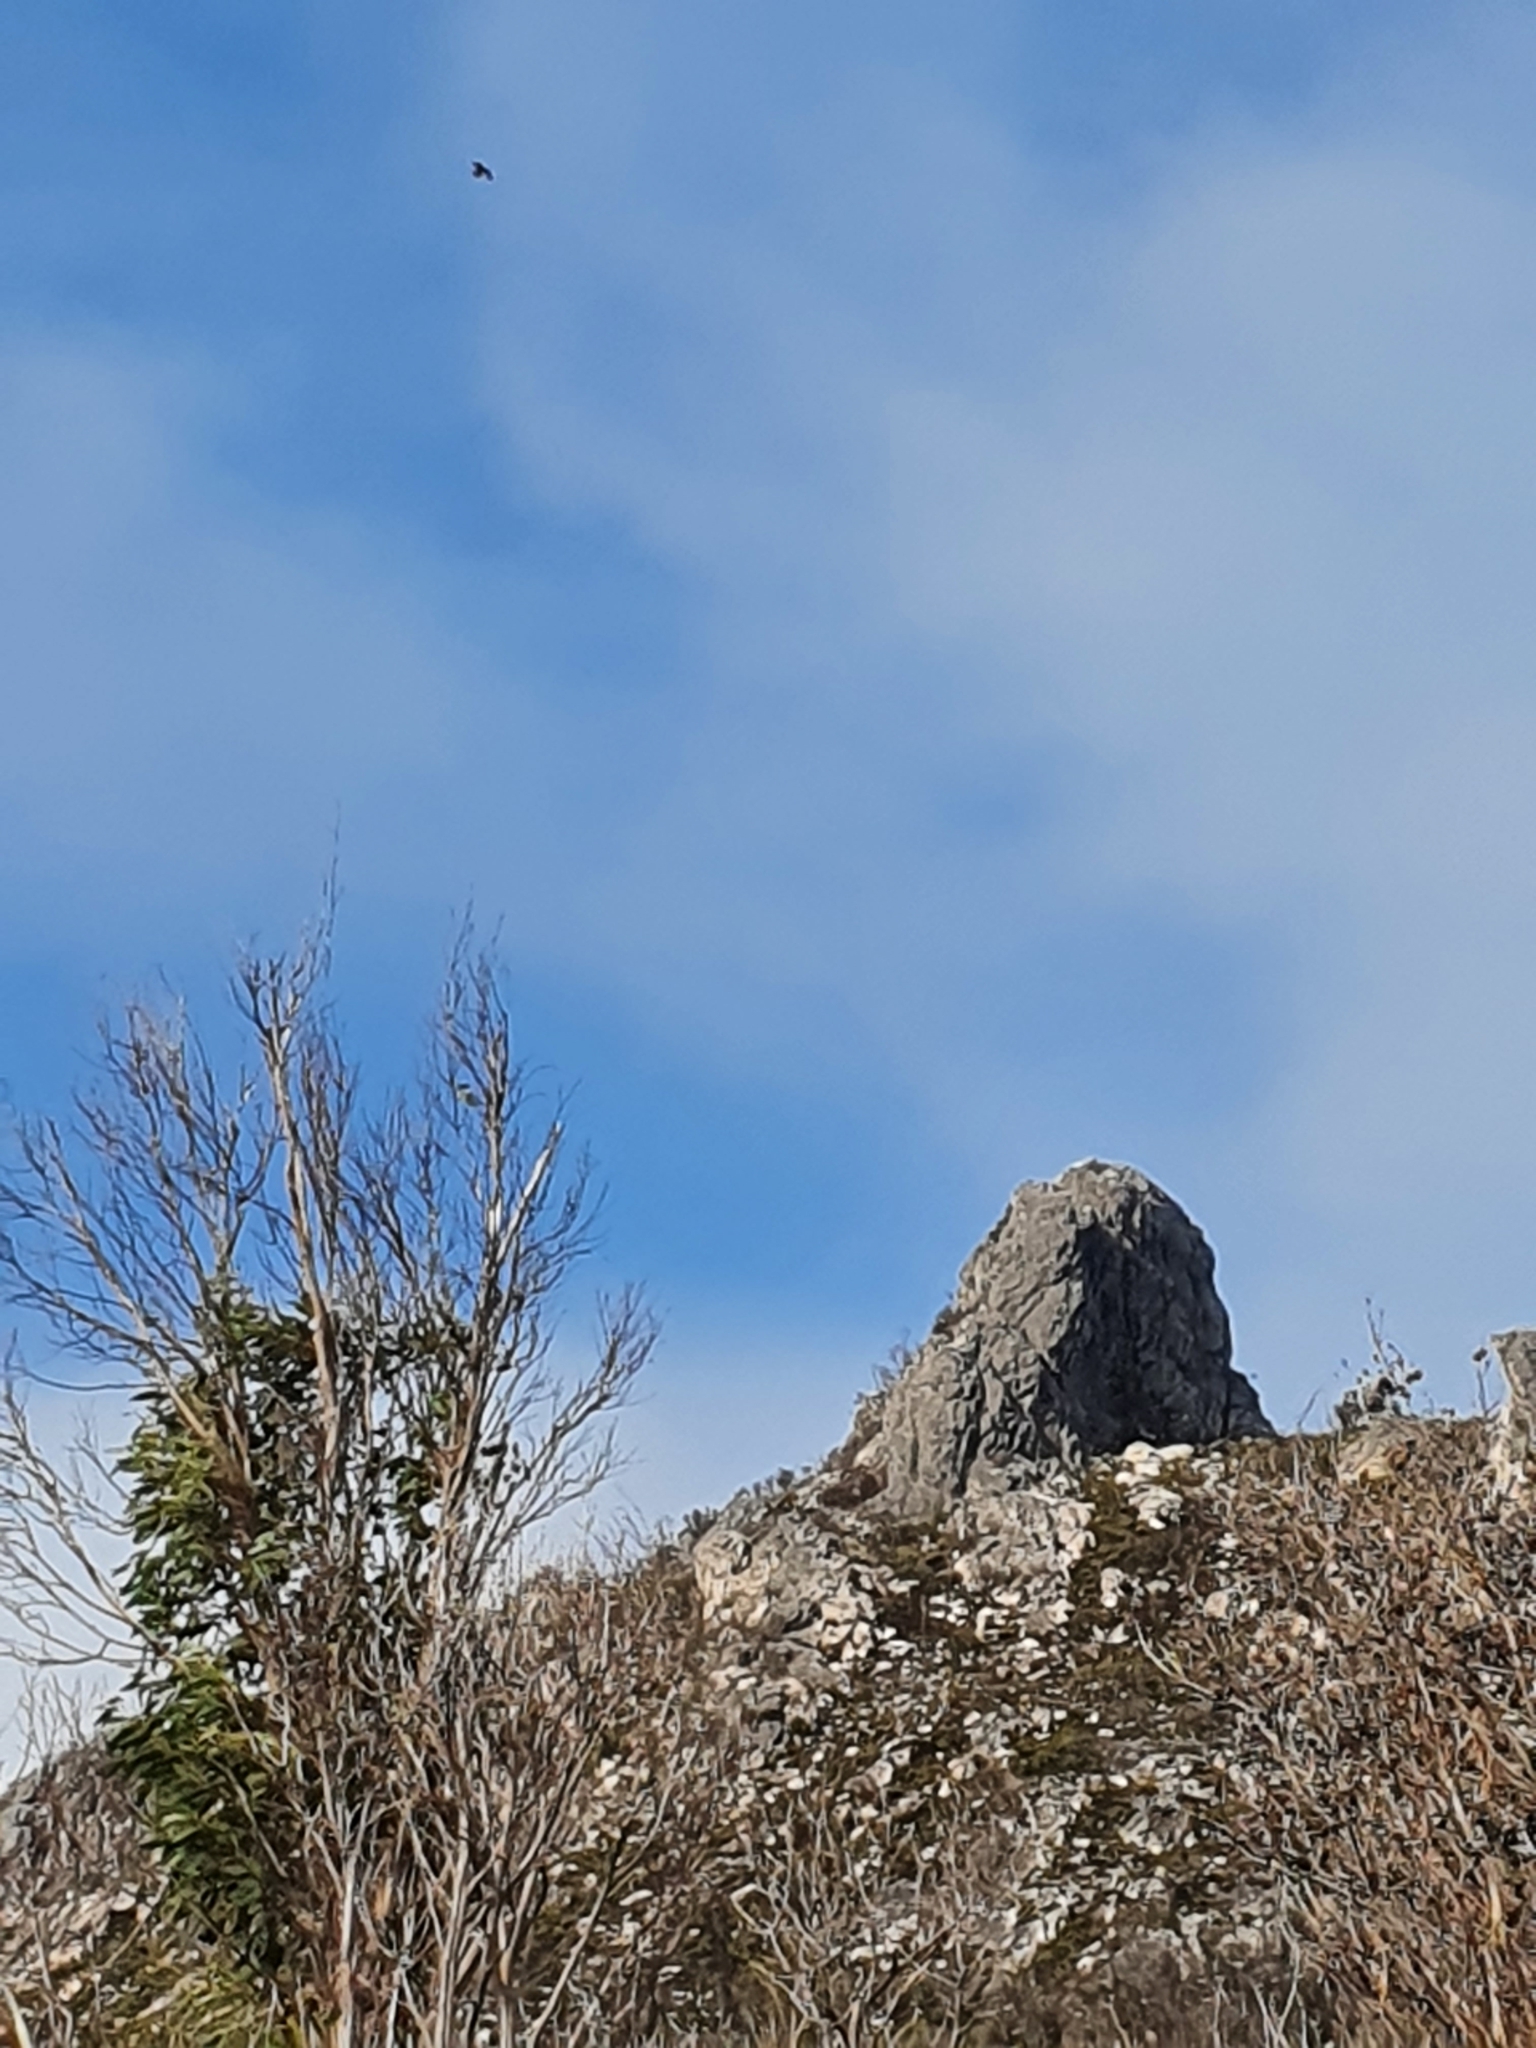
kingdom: Animalia
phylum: Chordata
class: Aves
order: Accipitriformes
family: Accipitridae
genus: Aquila
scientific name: Aquila audax
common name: Wedge-tailed eagle
